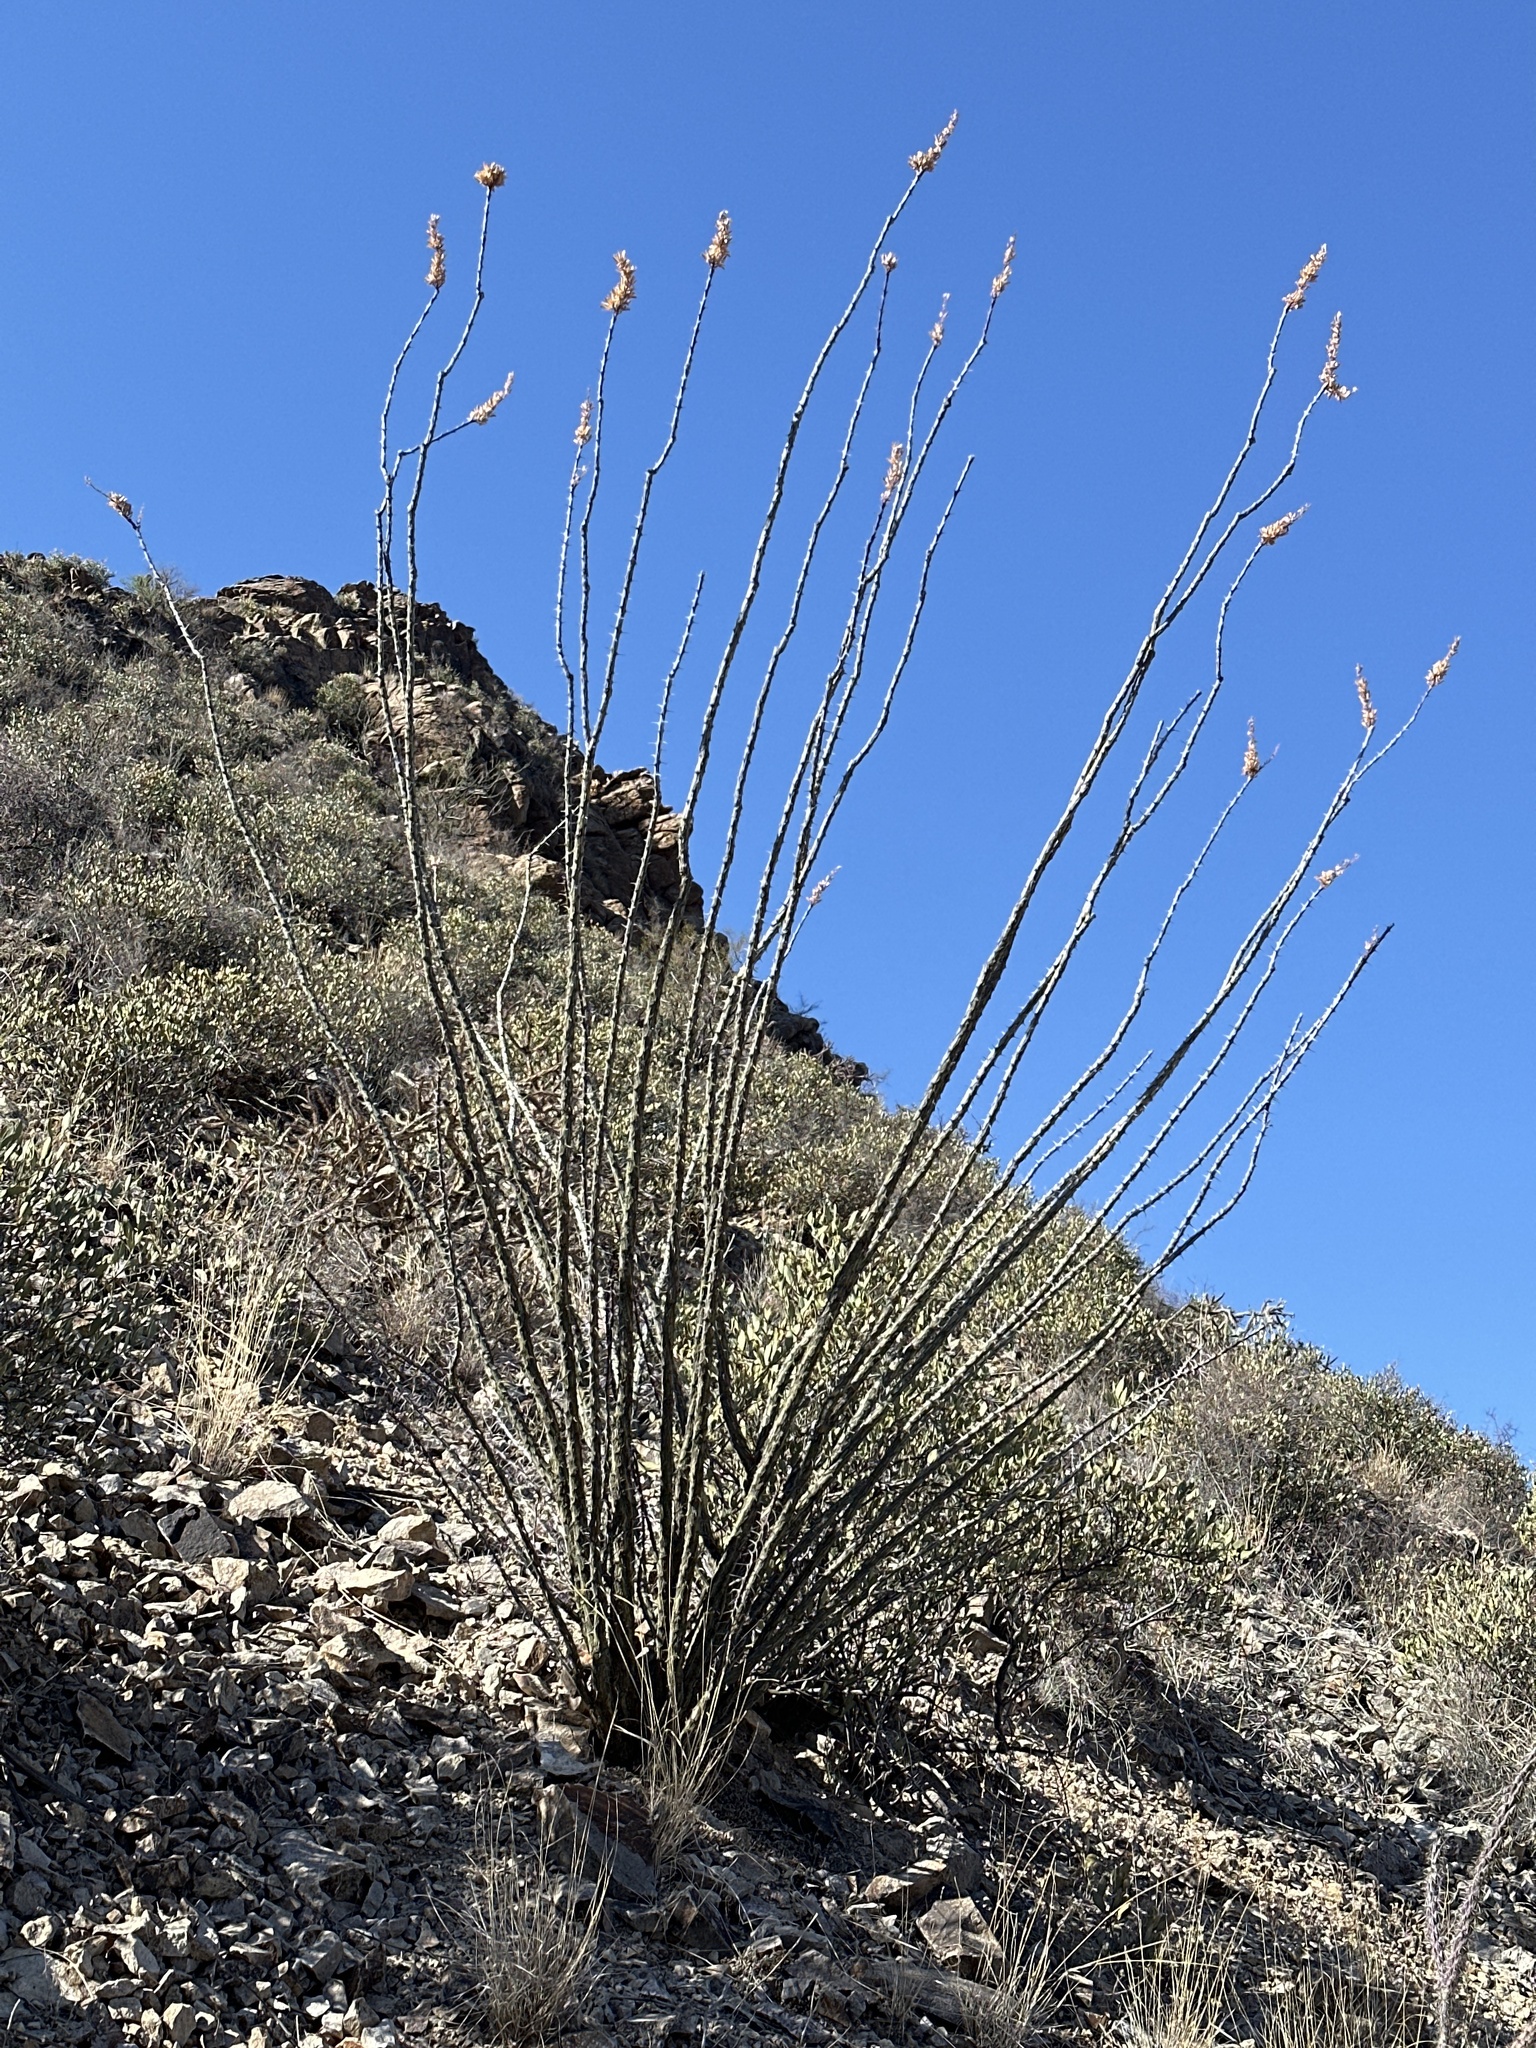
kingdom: Plantae
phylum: Tracheophyta
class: Magnoliopsida
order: Ericales
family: Fouquieriaceae
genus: Fouquieria
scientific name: Fouquieria splendens
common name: Vine-cactus
